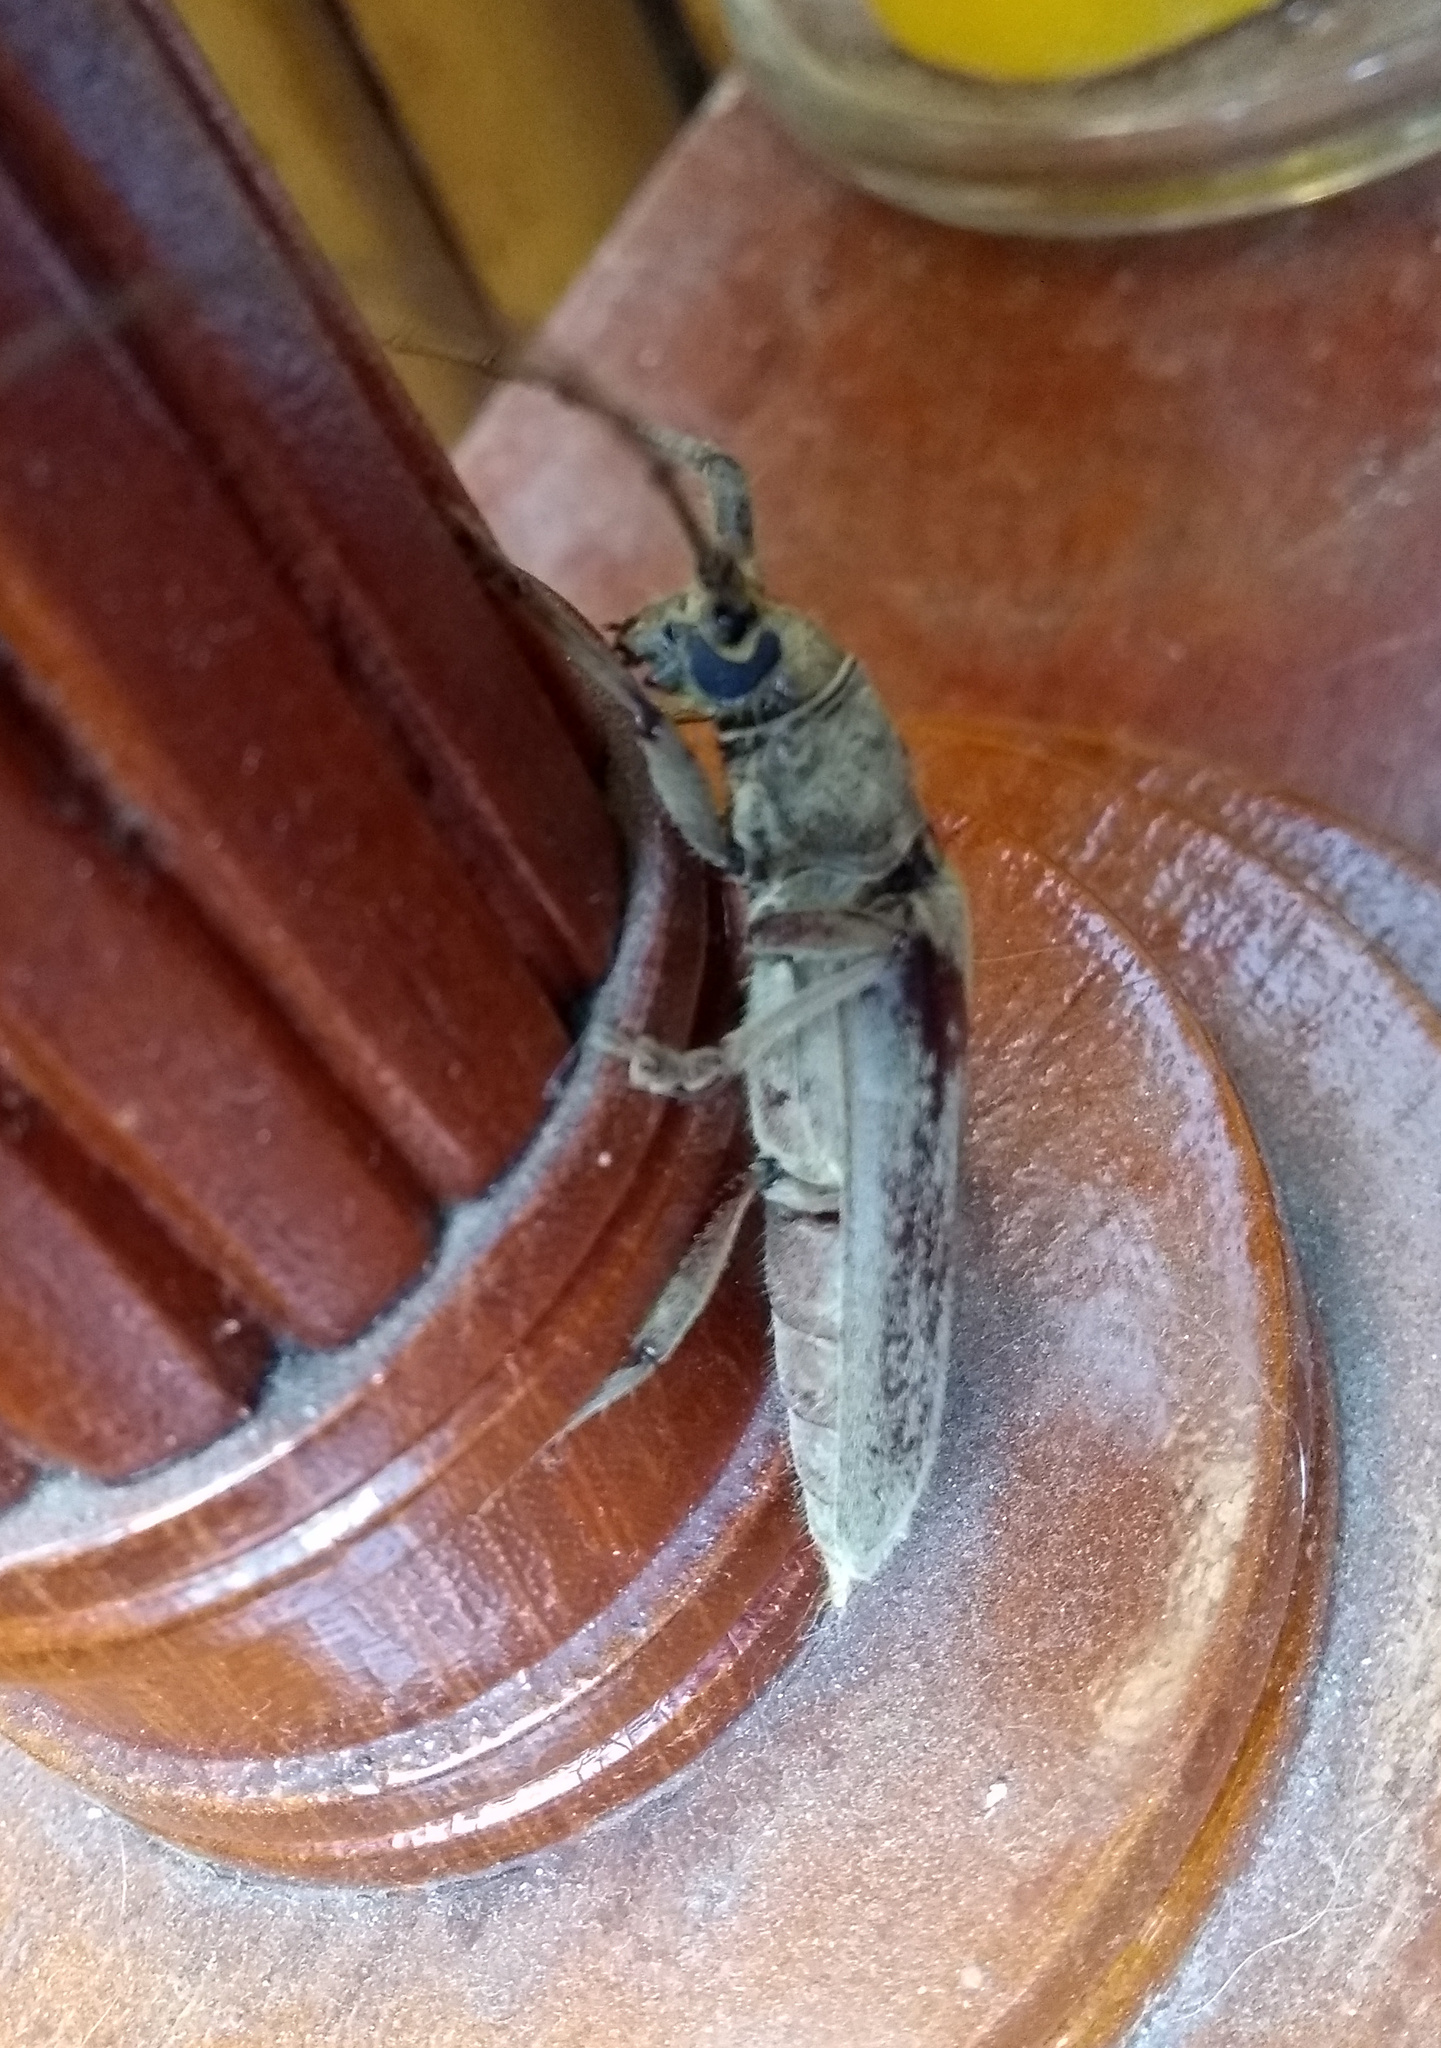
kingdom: Animalia
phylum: Arthropoda
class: Insecta
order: Coleoptera
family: Cerambycidae
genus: Criodion
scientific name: Criodion tomentosum
